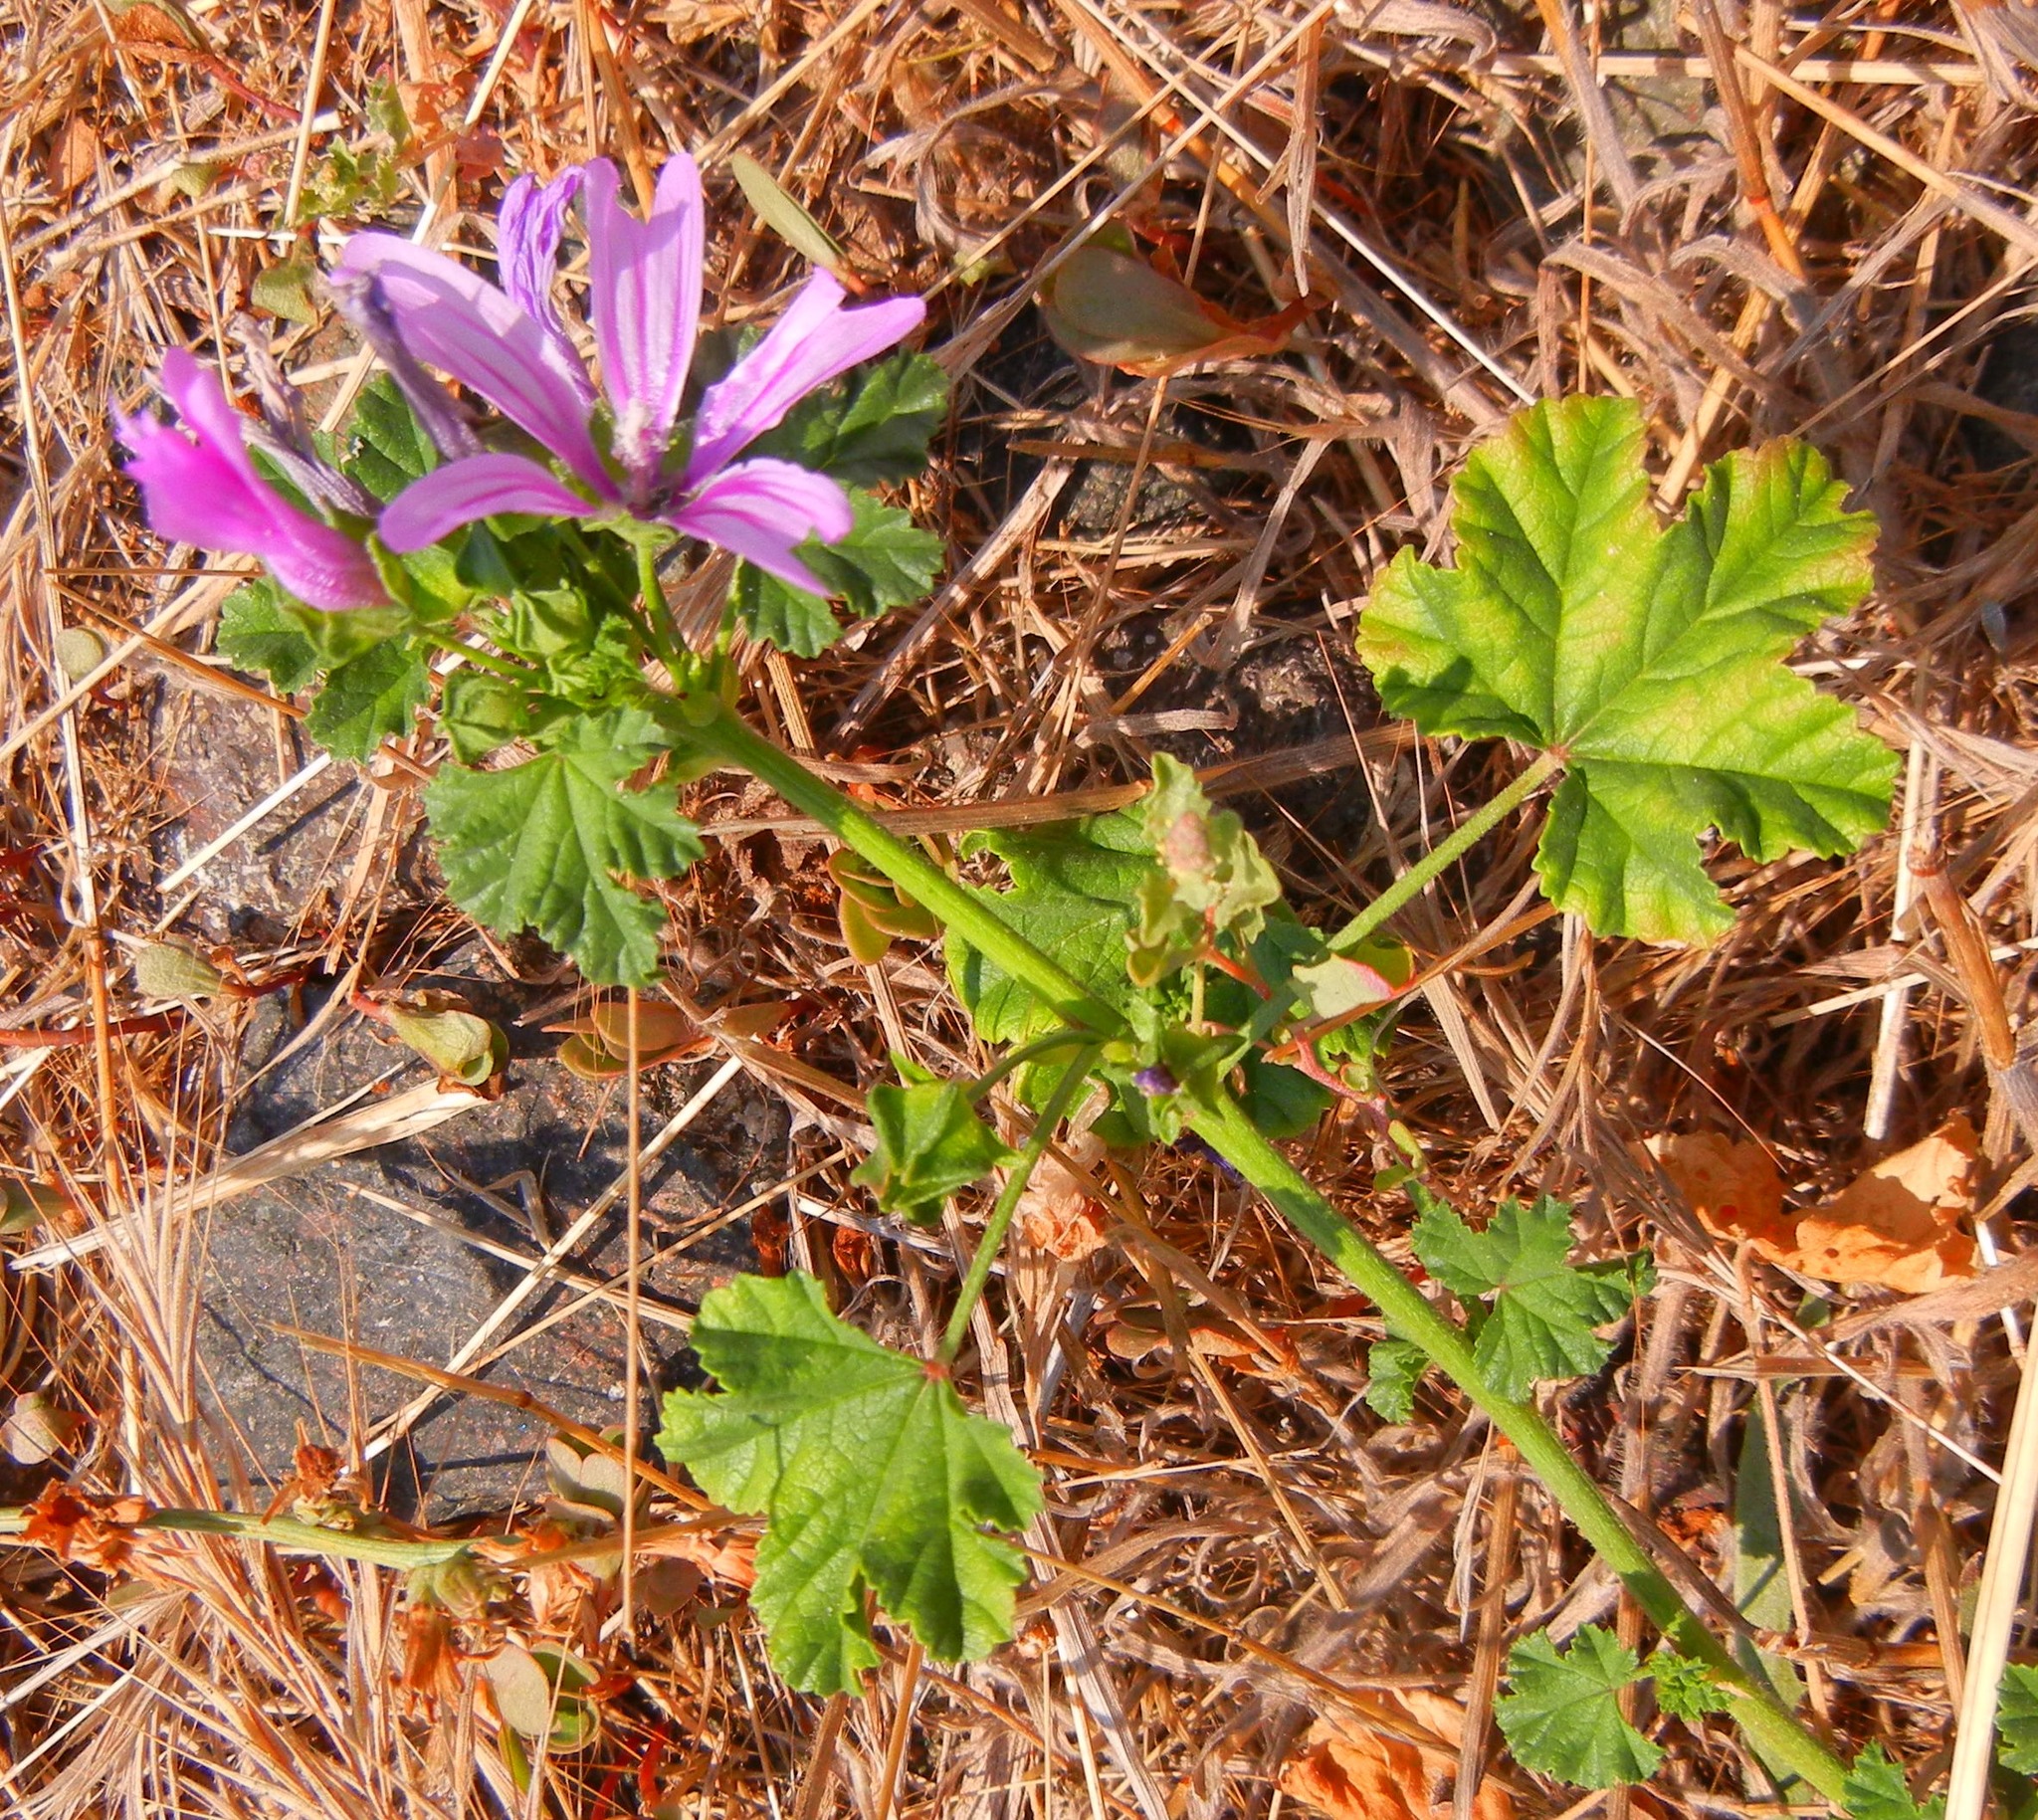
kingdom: Plantae
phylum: Tracheophyta
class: Magnoliopsida
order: Malvales
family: Malvaceae
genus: Malva
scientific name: Malva sylvestris
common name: Common mallow
